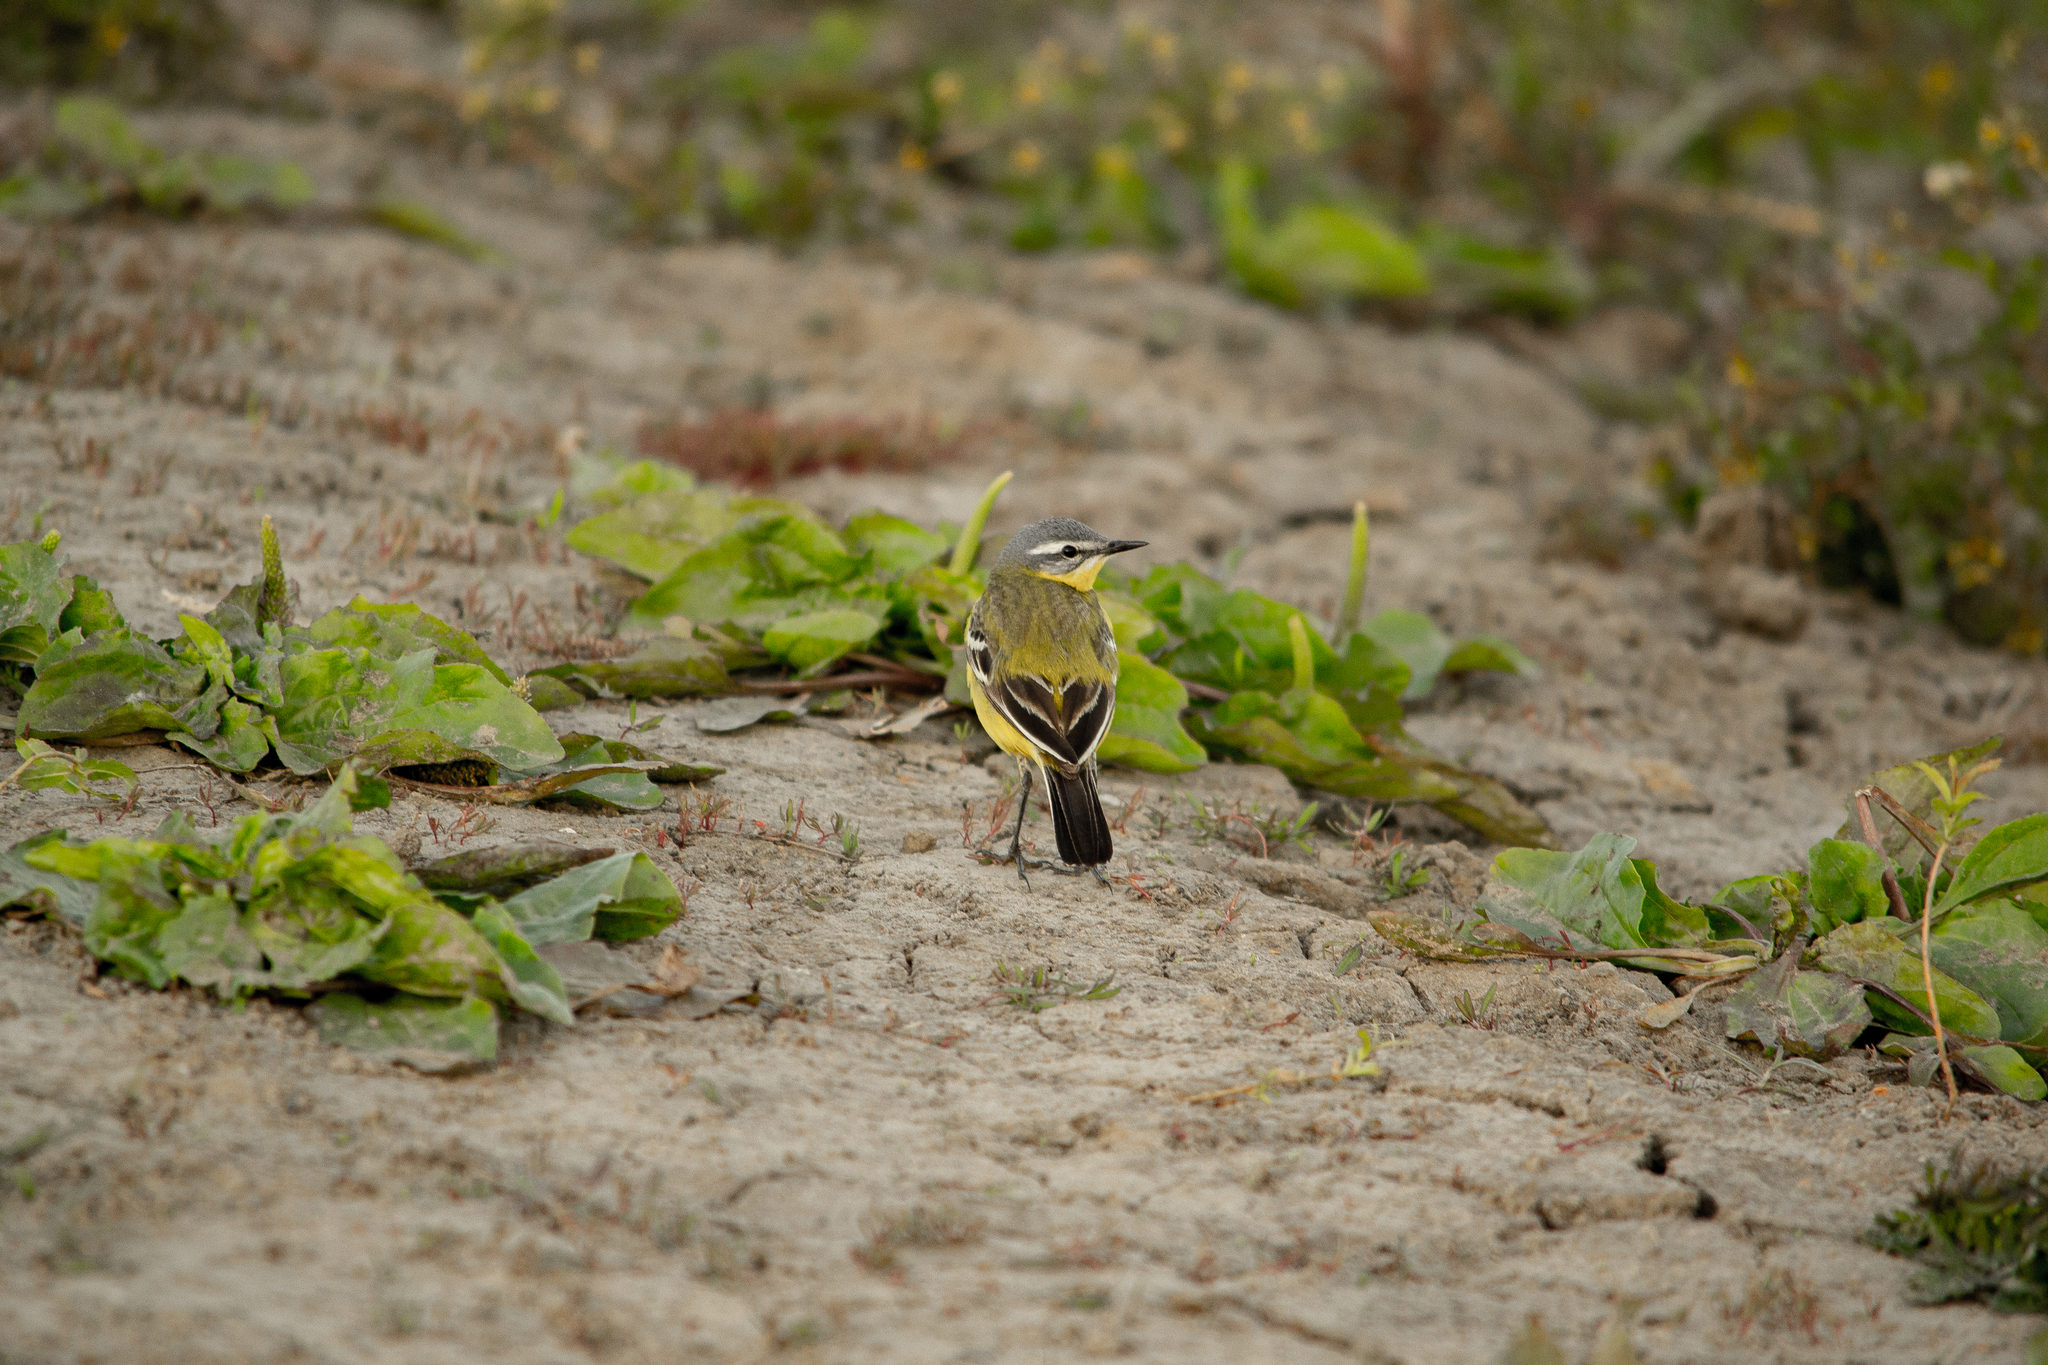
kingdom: Animalia
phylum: Chordata
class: Aves
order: Passeriformes
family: Motacillidae
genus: Motacilla
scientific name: Motacilla flava
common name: Western yellow wagtail
